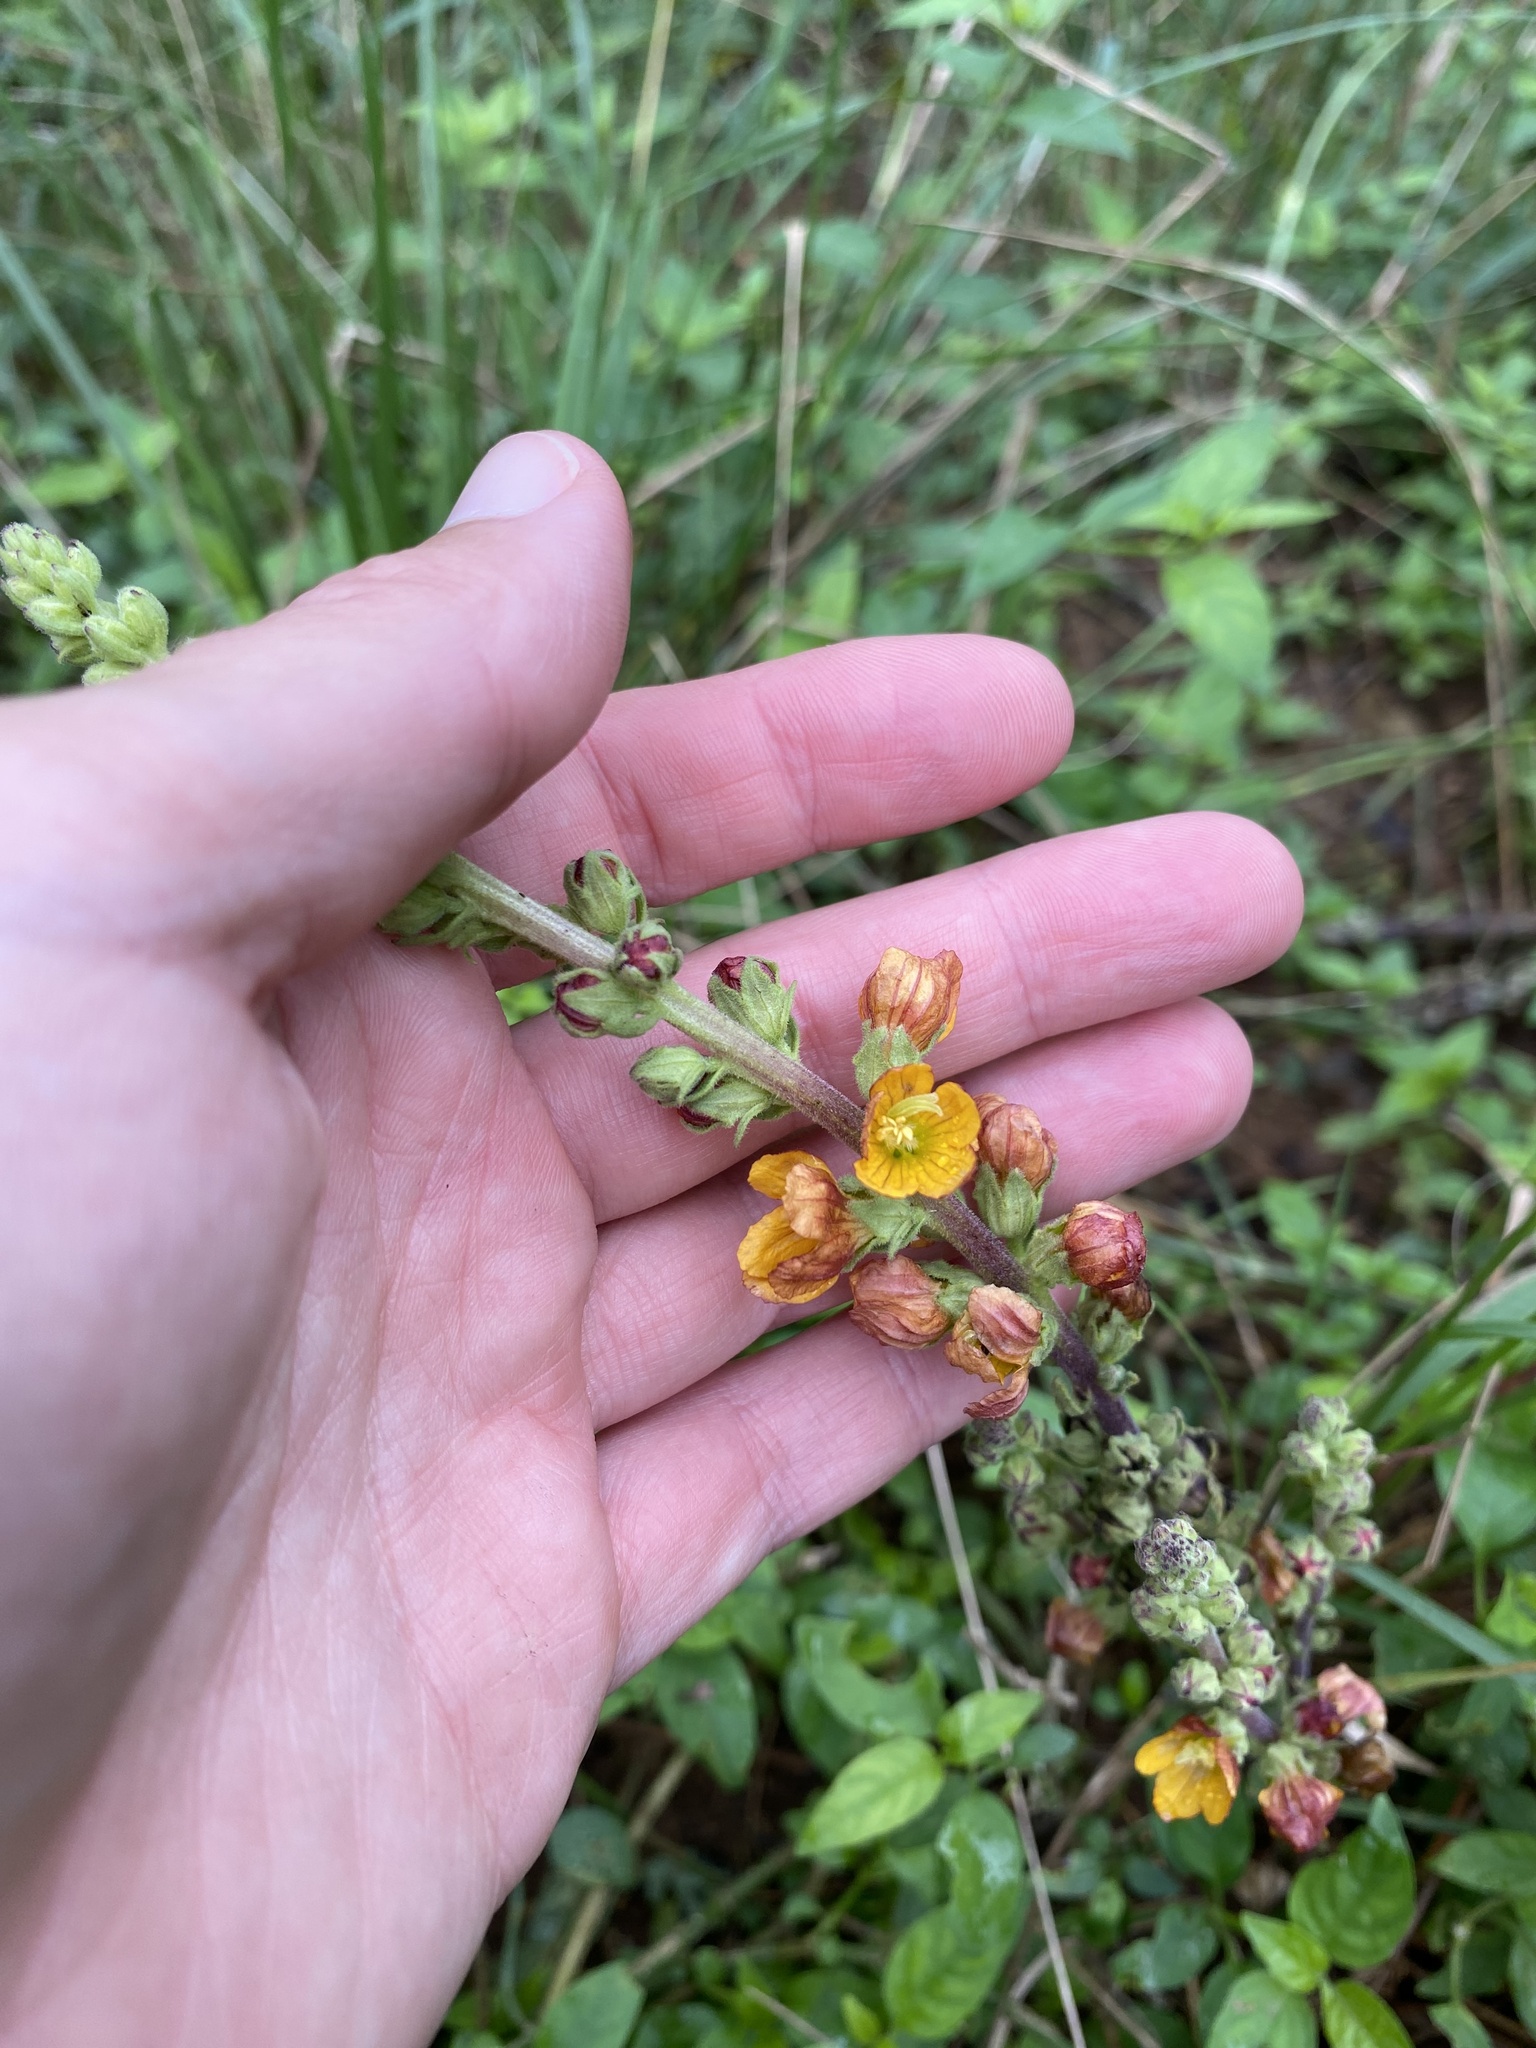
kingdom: Plantae
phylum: Tracheophyta
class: Magnoliopsida
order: Lamiales
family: Orobanchaceae
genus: Alectra
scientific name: Alectra sessiliflora
